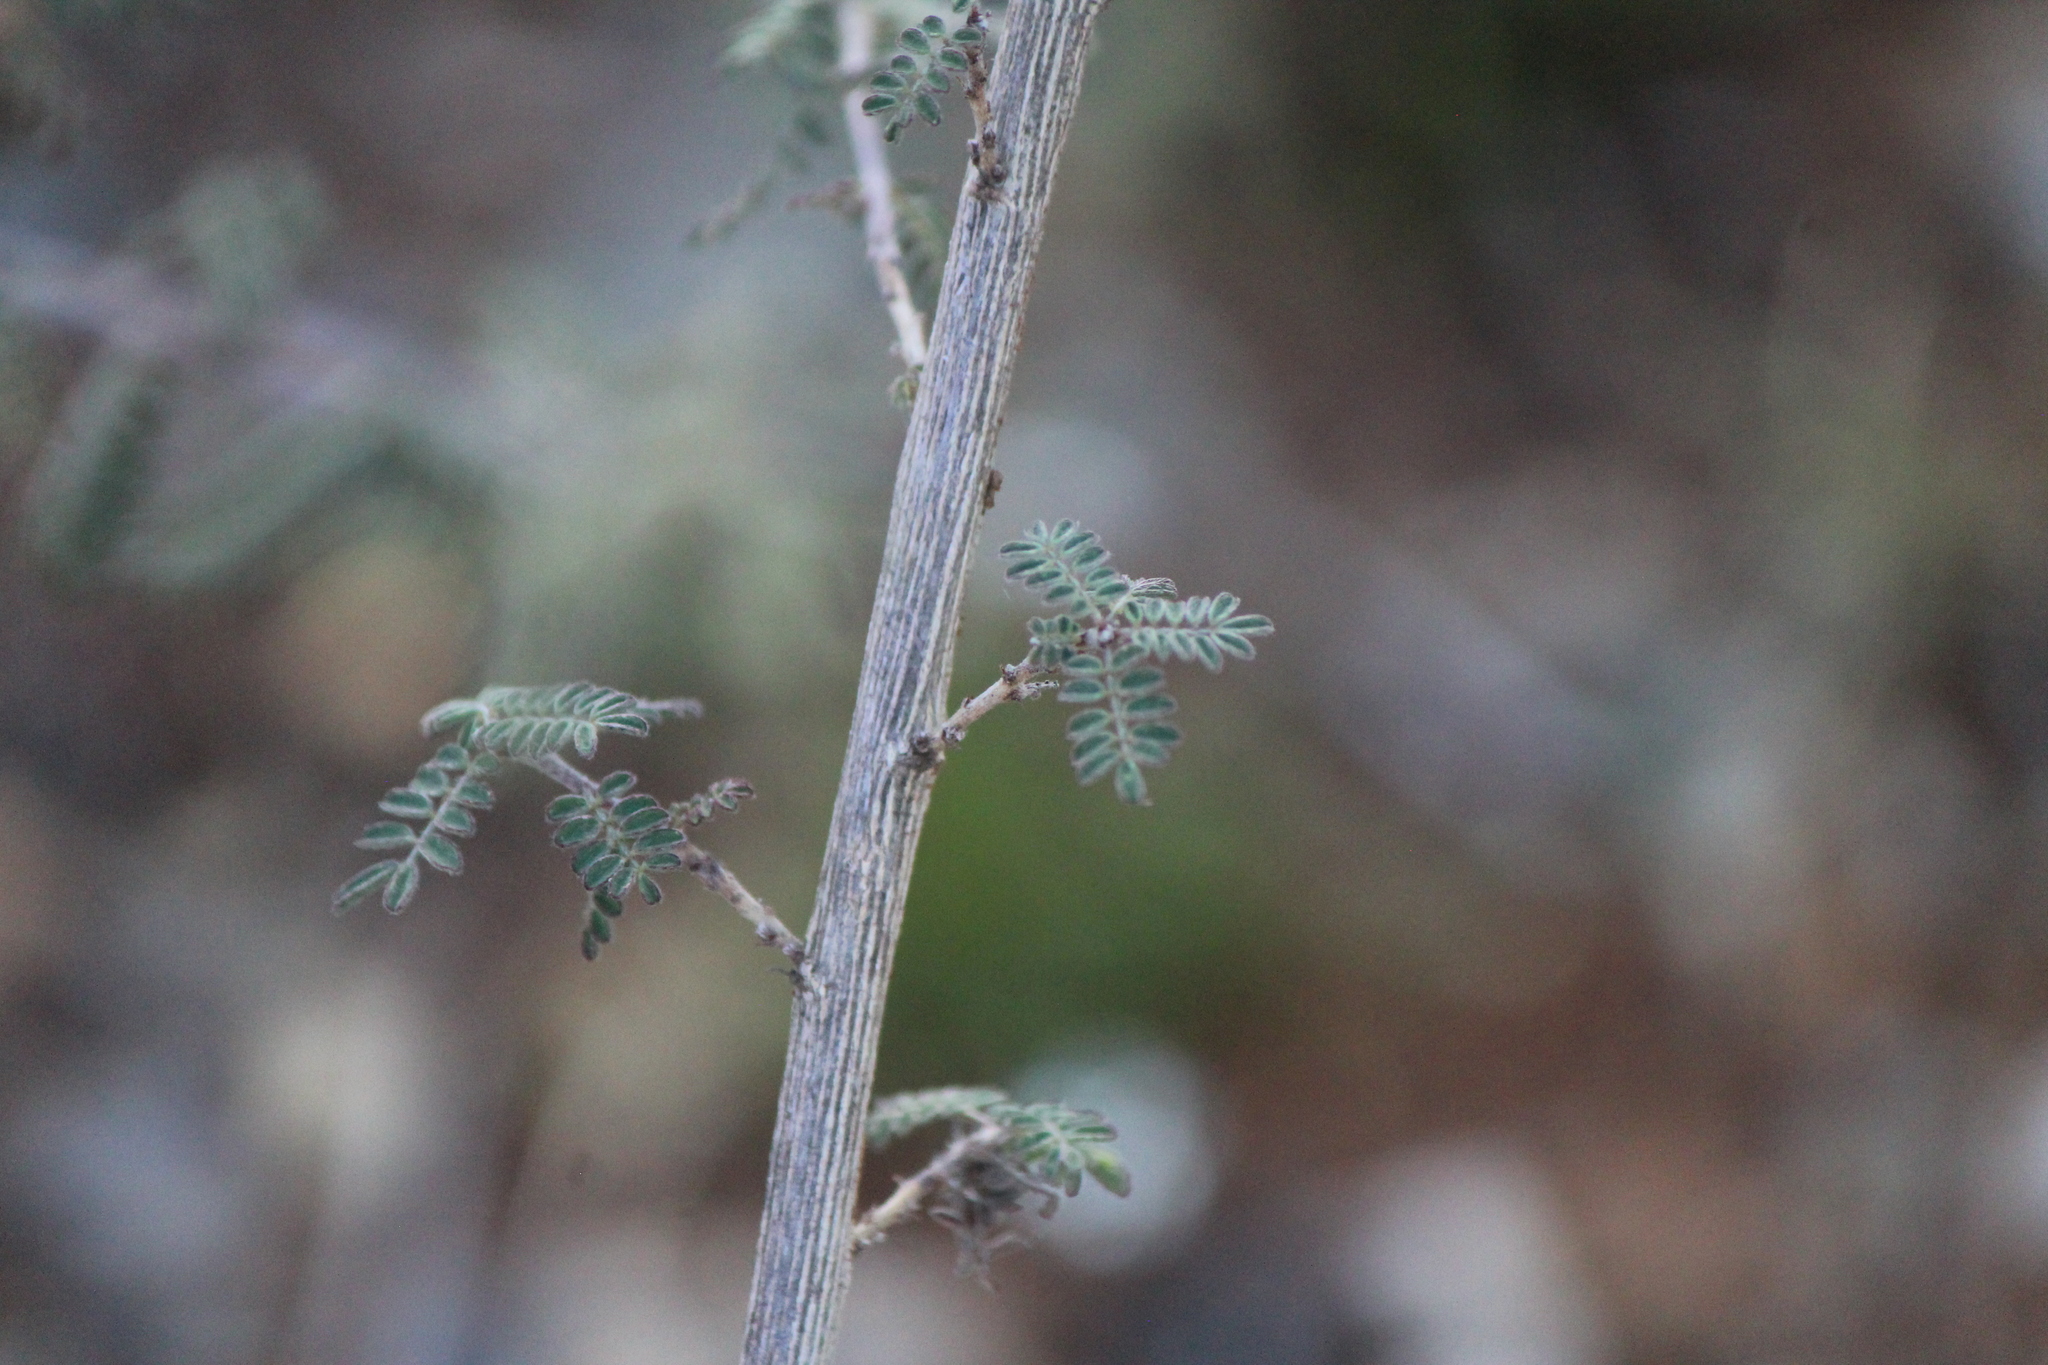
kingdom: Plantae
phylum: Tracheophyta
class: Magnoliopsida
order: Fabales
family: Fabaceae
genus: Dalea
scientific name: Dalea lutea
